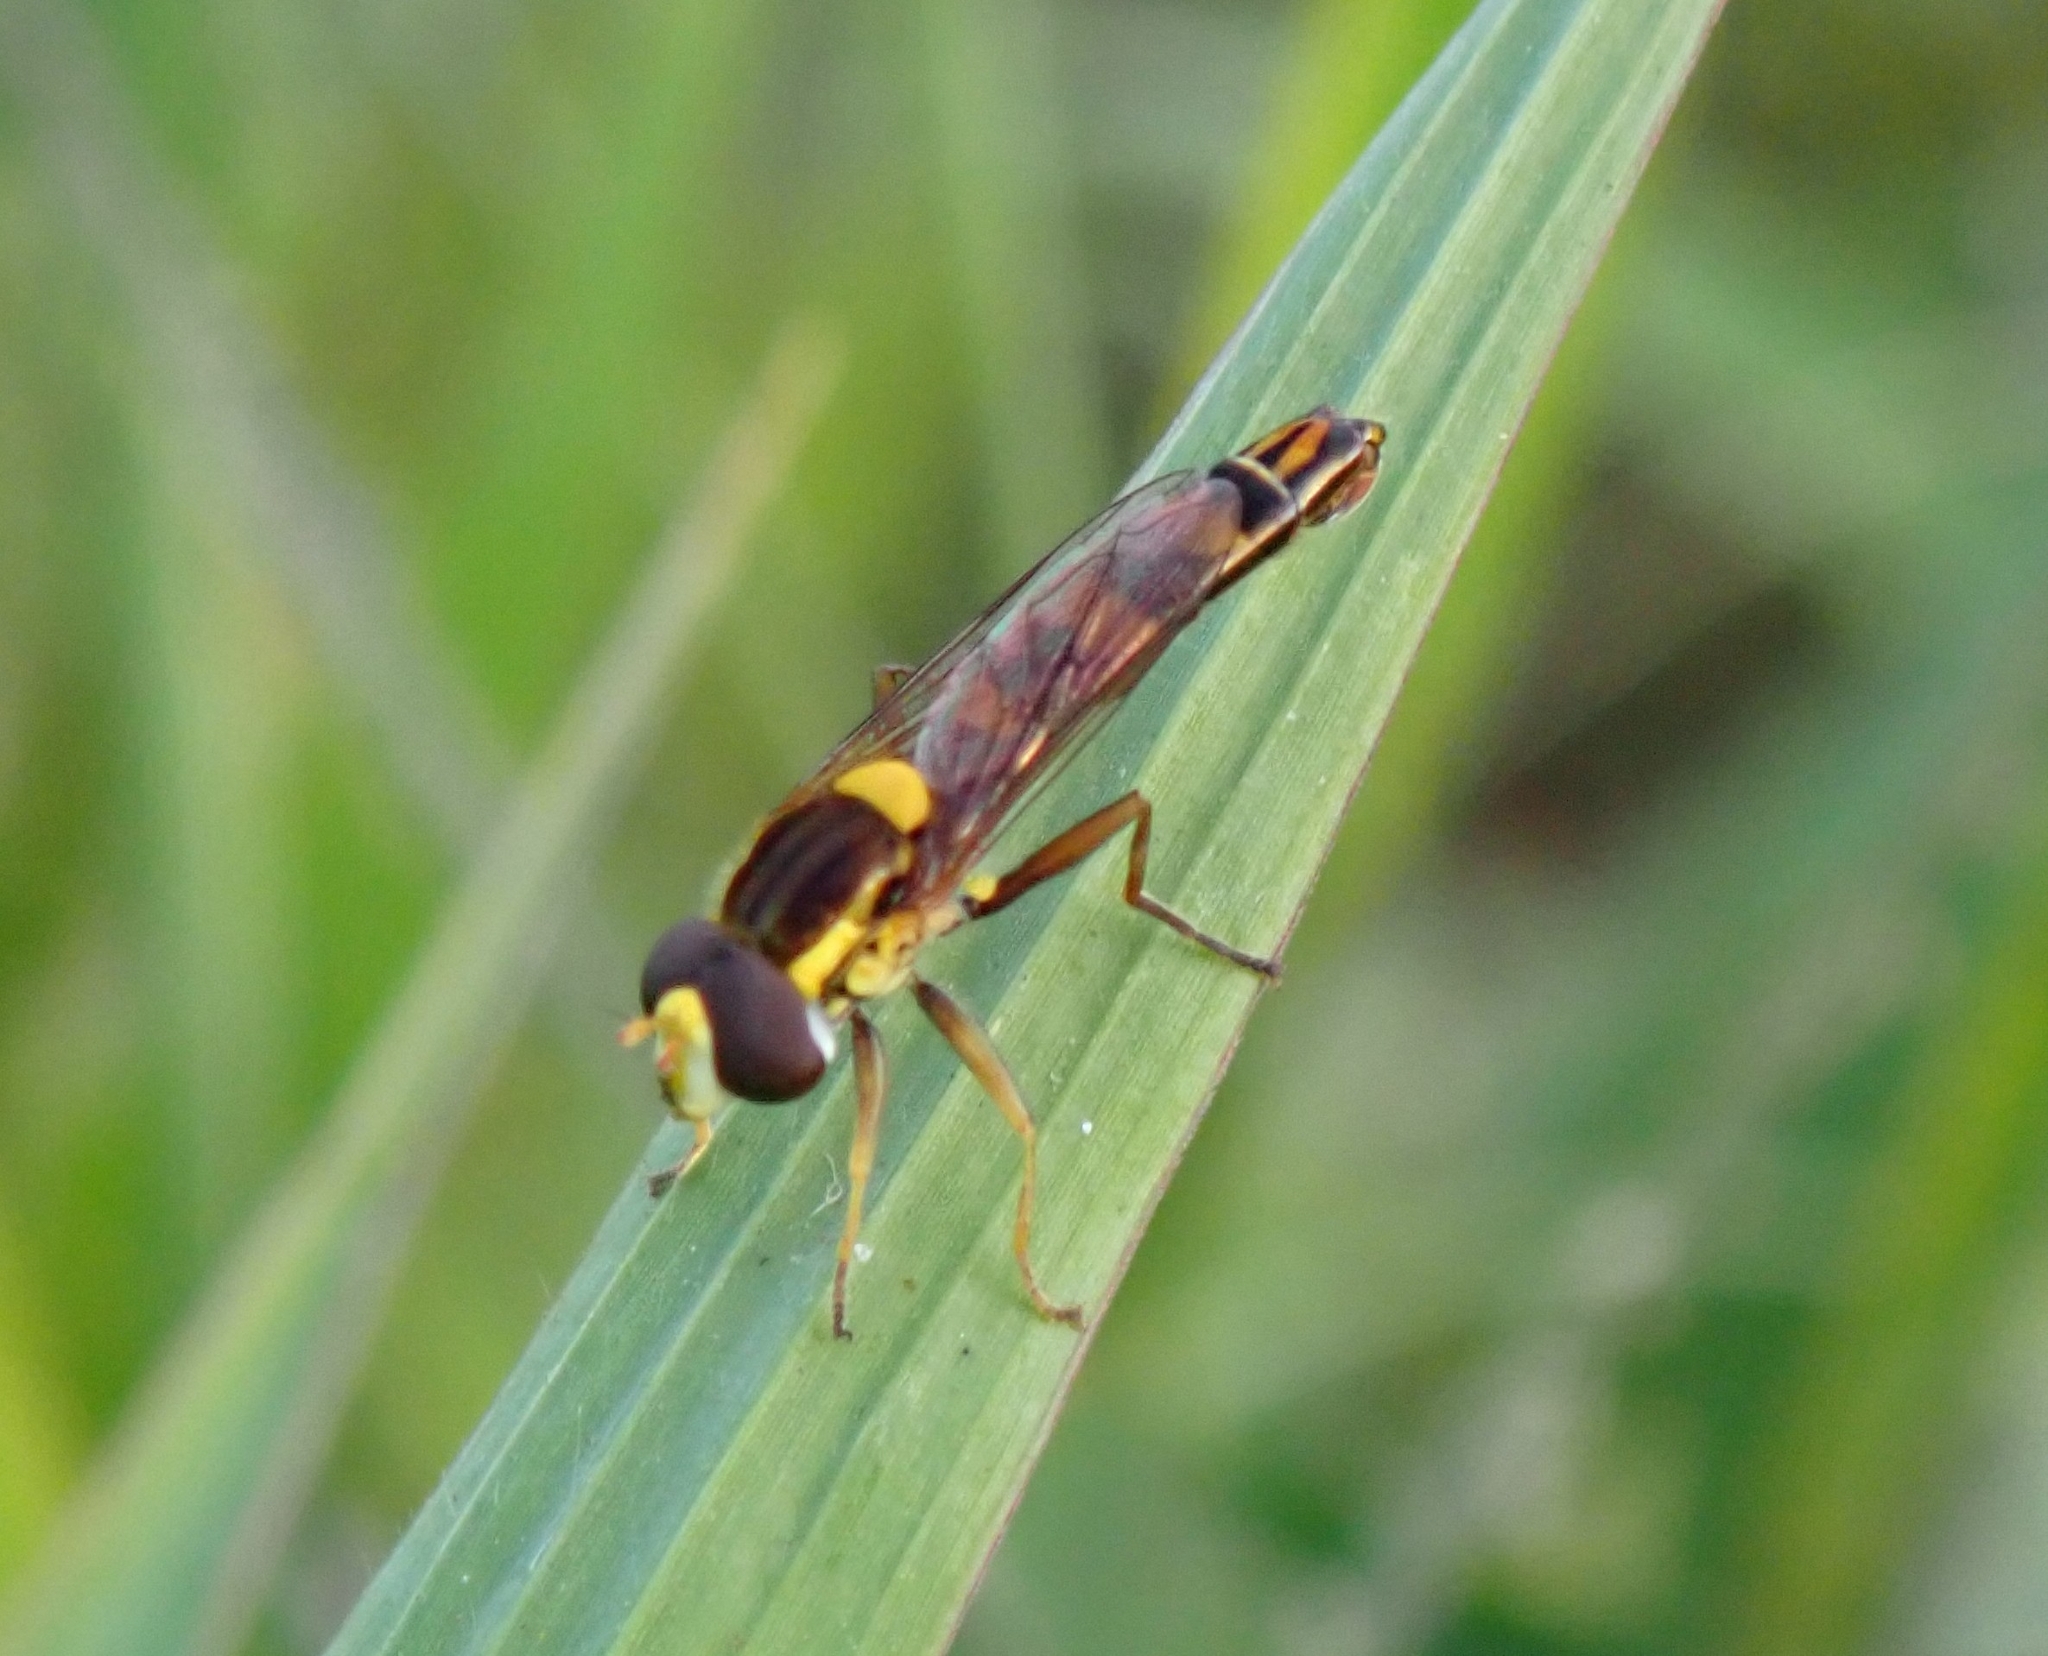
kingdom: Animalia
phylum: Arthropoda
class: Insecta
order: Diptera
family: Syrphidae
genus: Sphaerophoria
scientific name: Sphaerophoria scripta
